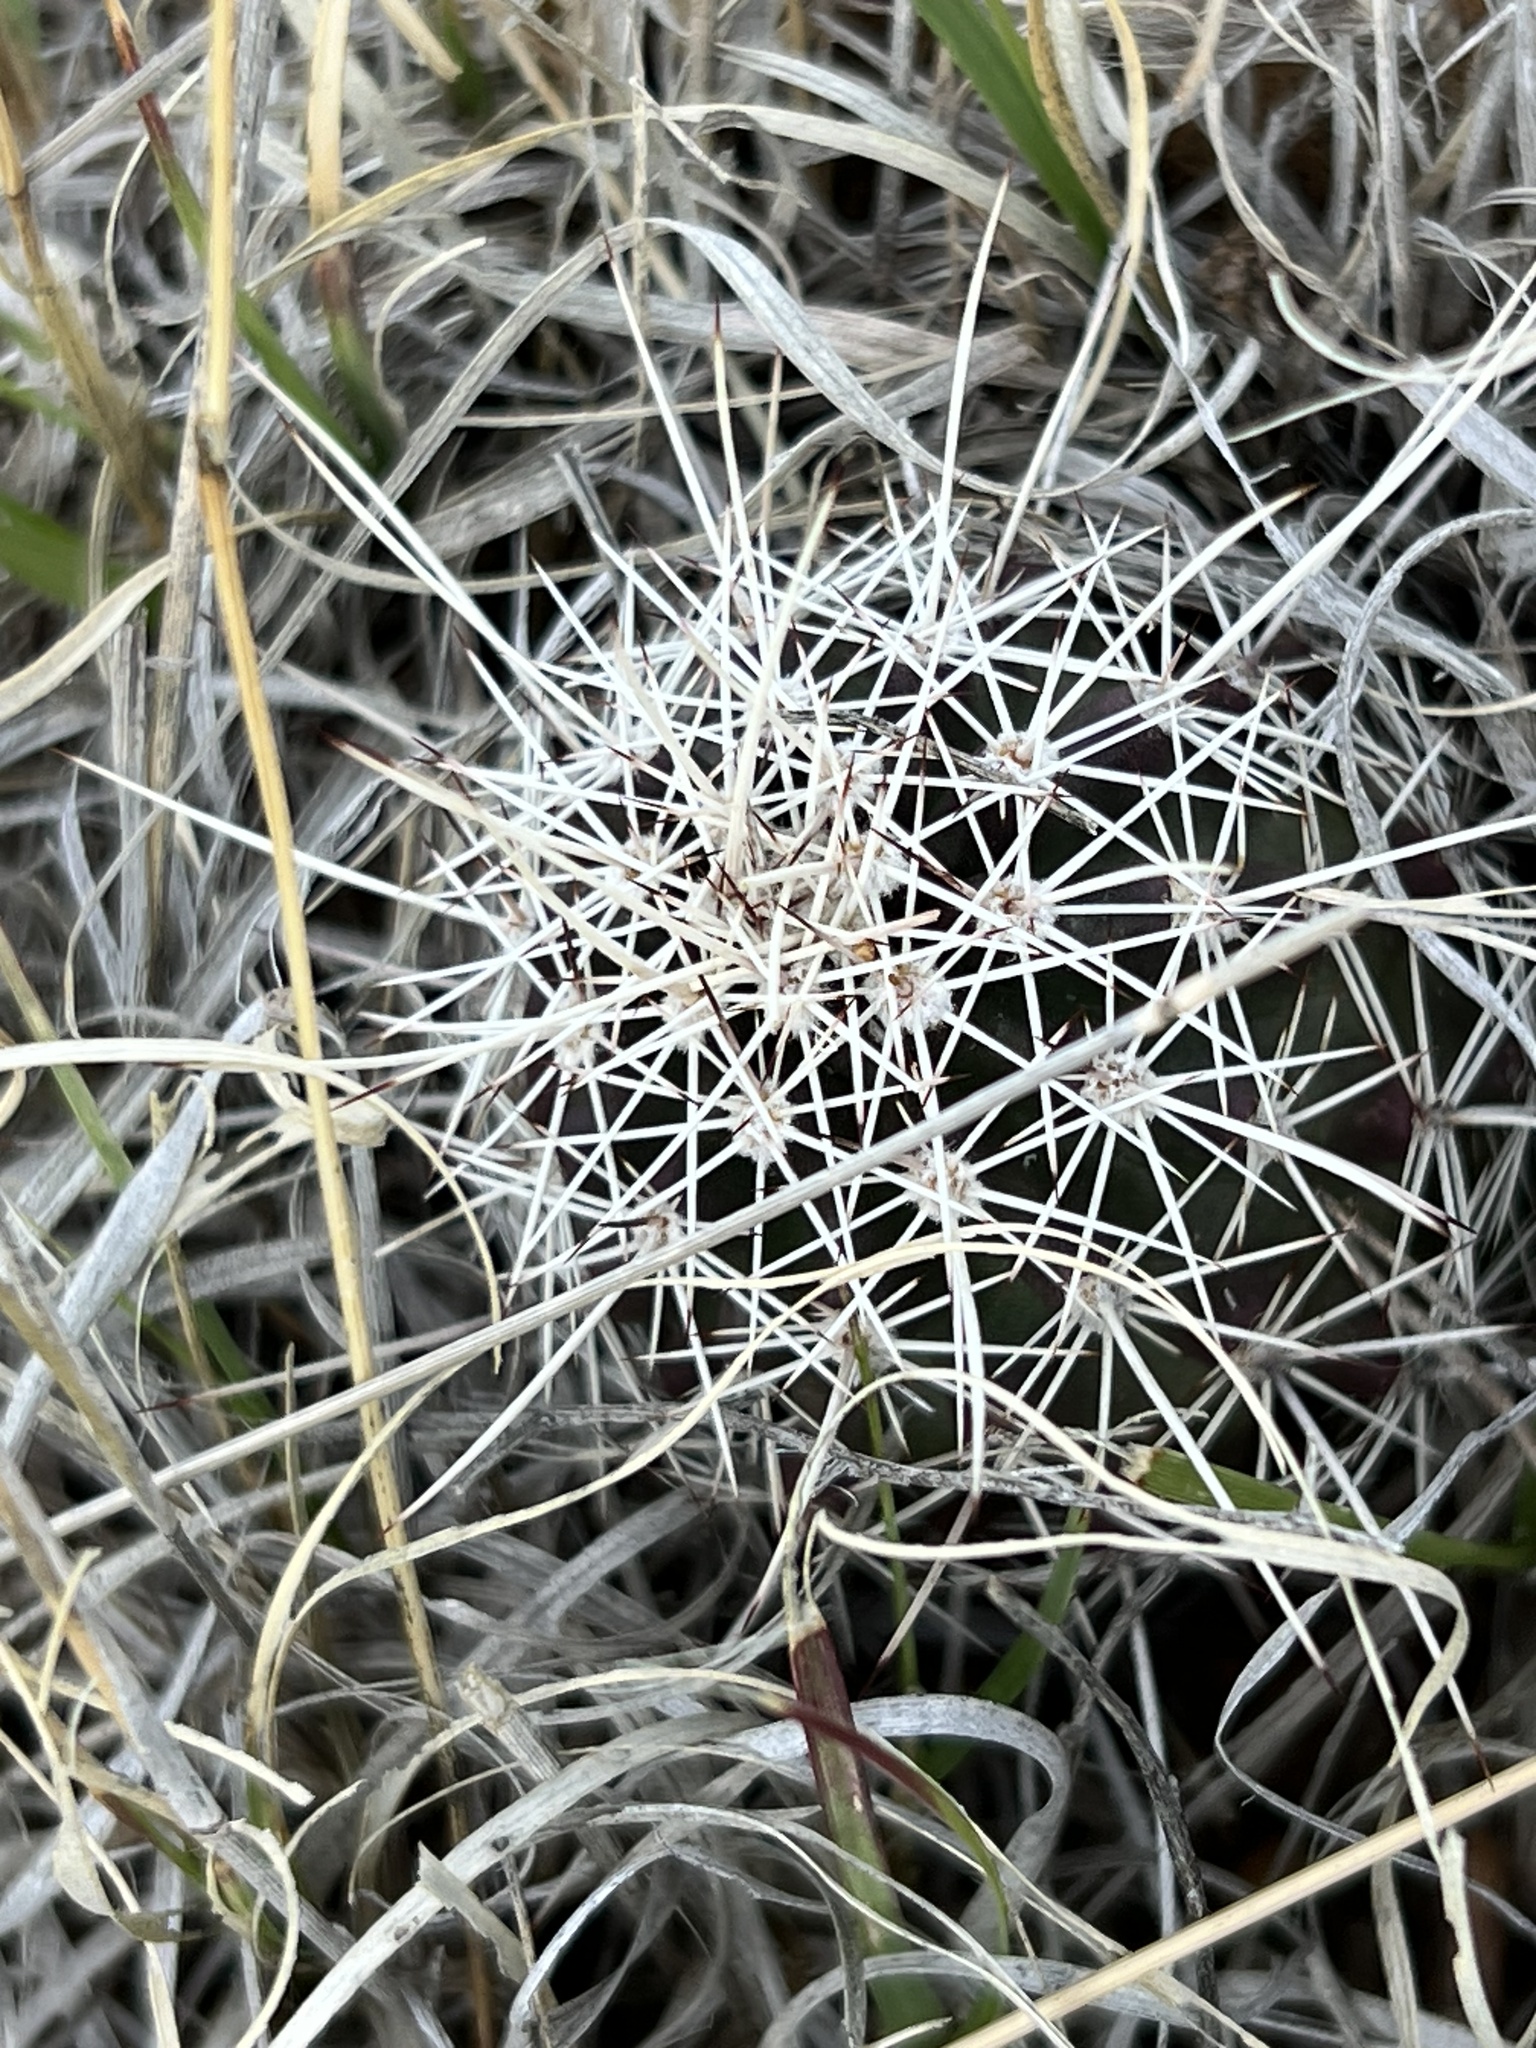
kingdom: Plantae
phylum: Tracheophyta
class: Magnoliopsida
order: Caryophyllales
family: Cactaceae
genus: Echinocereus
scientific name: Echinocereus fendleri
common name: Fendler's hedgehog cactus
